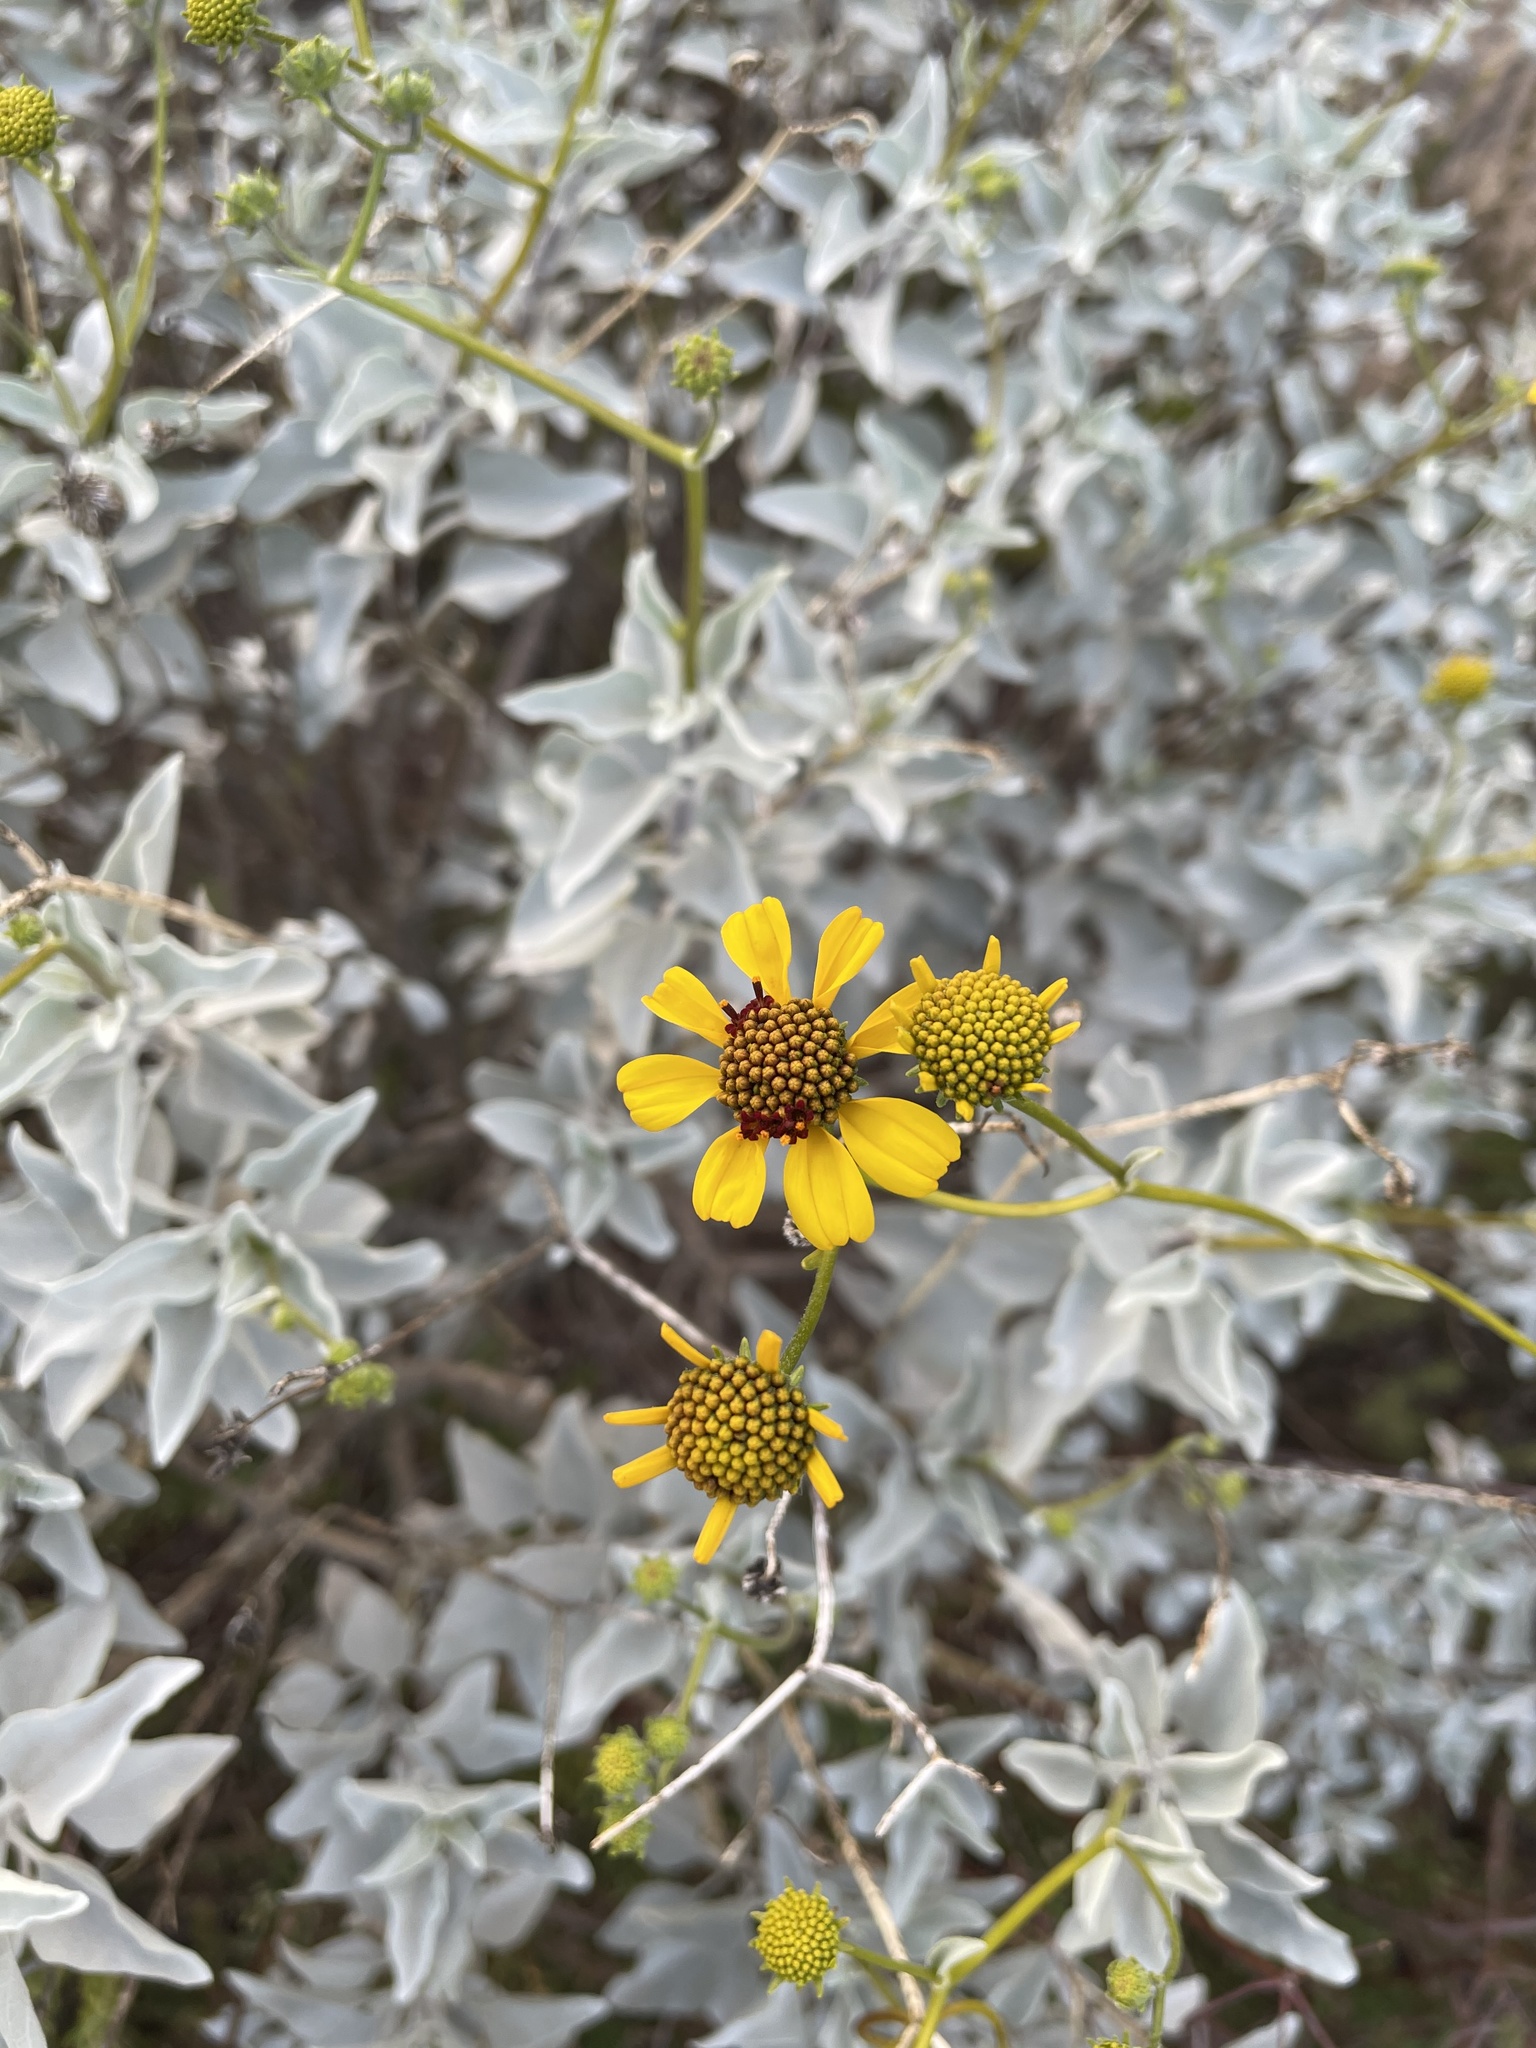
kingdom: Plantae
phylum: Tracheophyta
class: Magnoliopsida
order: Asterales
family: Asteraceae
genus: Encelia
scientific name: Encelia farinosa
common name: Brittlebush
